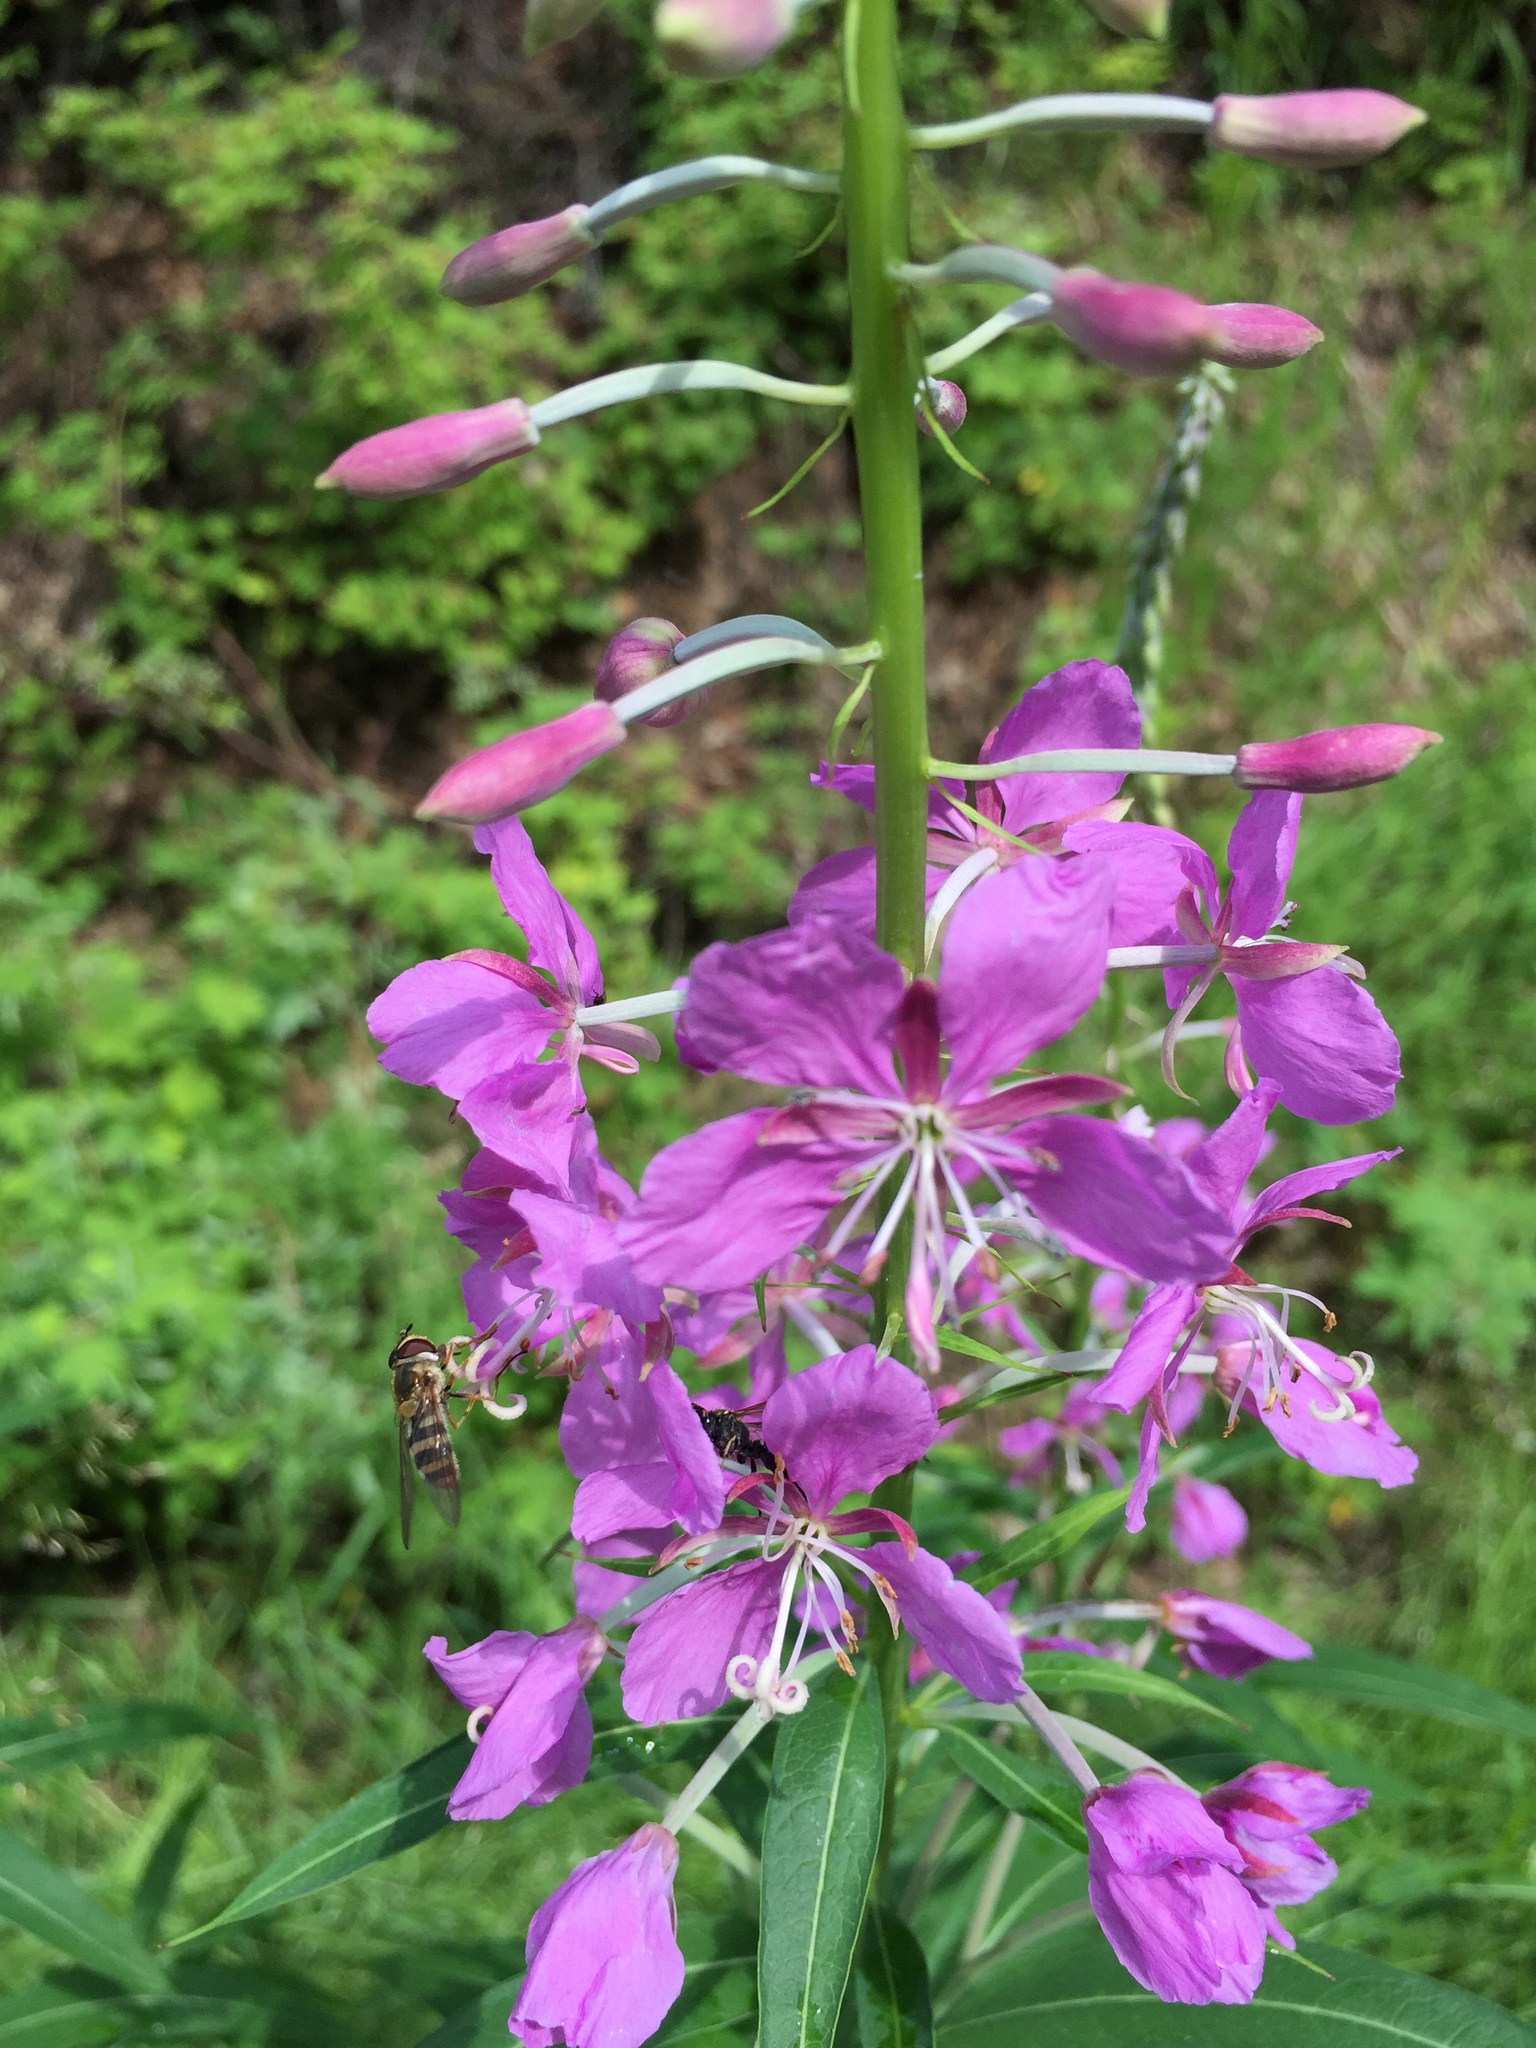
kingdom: Animalia
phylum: Arthropoda
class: Insecta
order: Diptera
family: Syrphidae
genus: Epistrophe
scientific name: Epistrophe grossulariae
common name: Black-horned smoothtail
